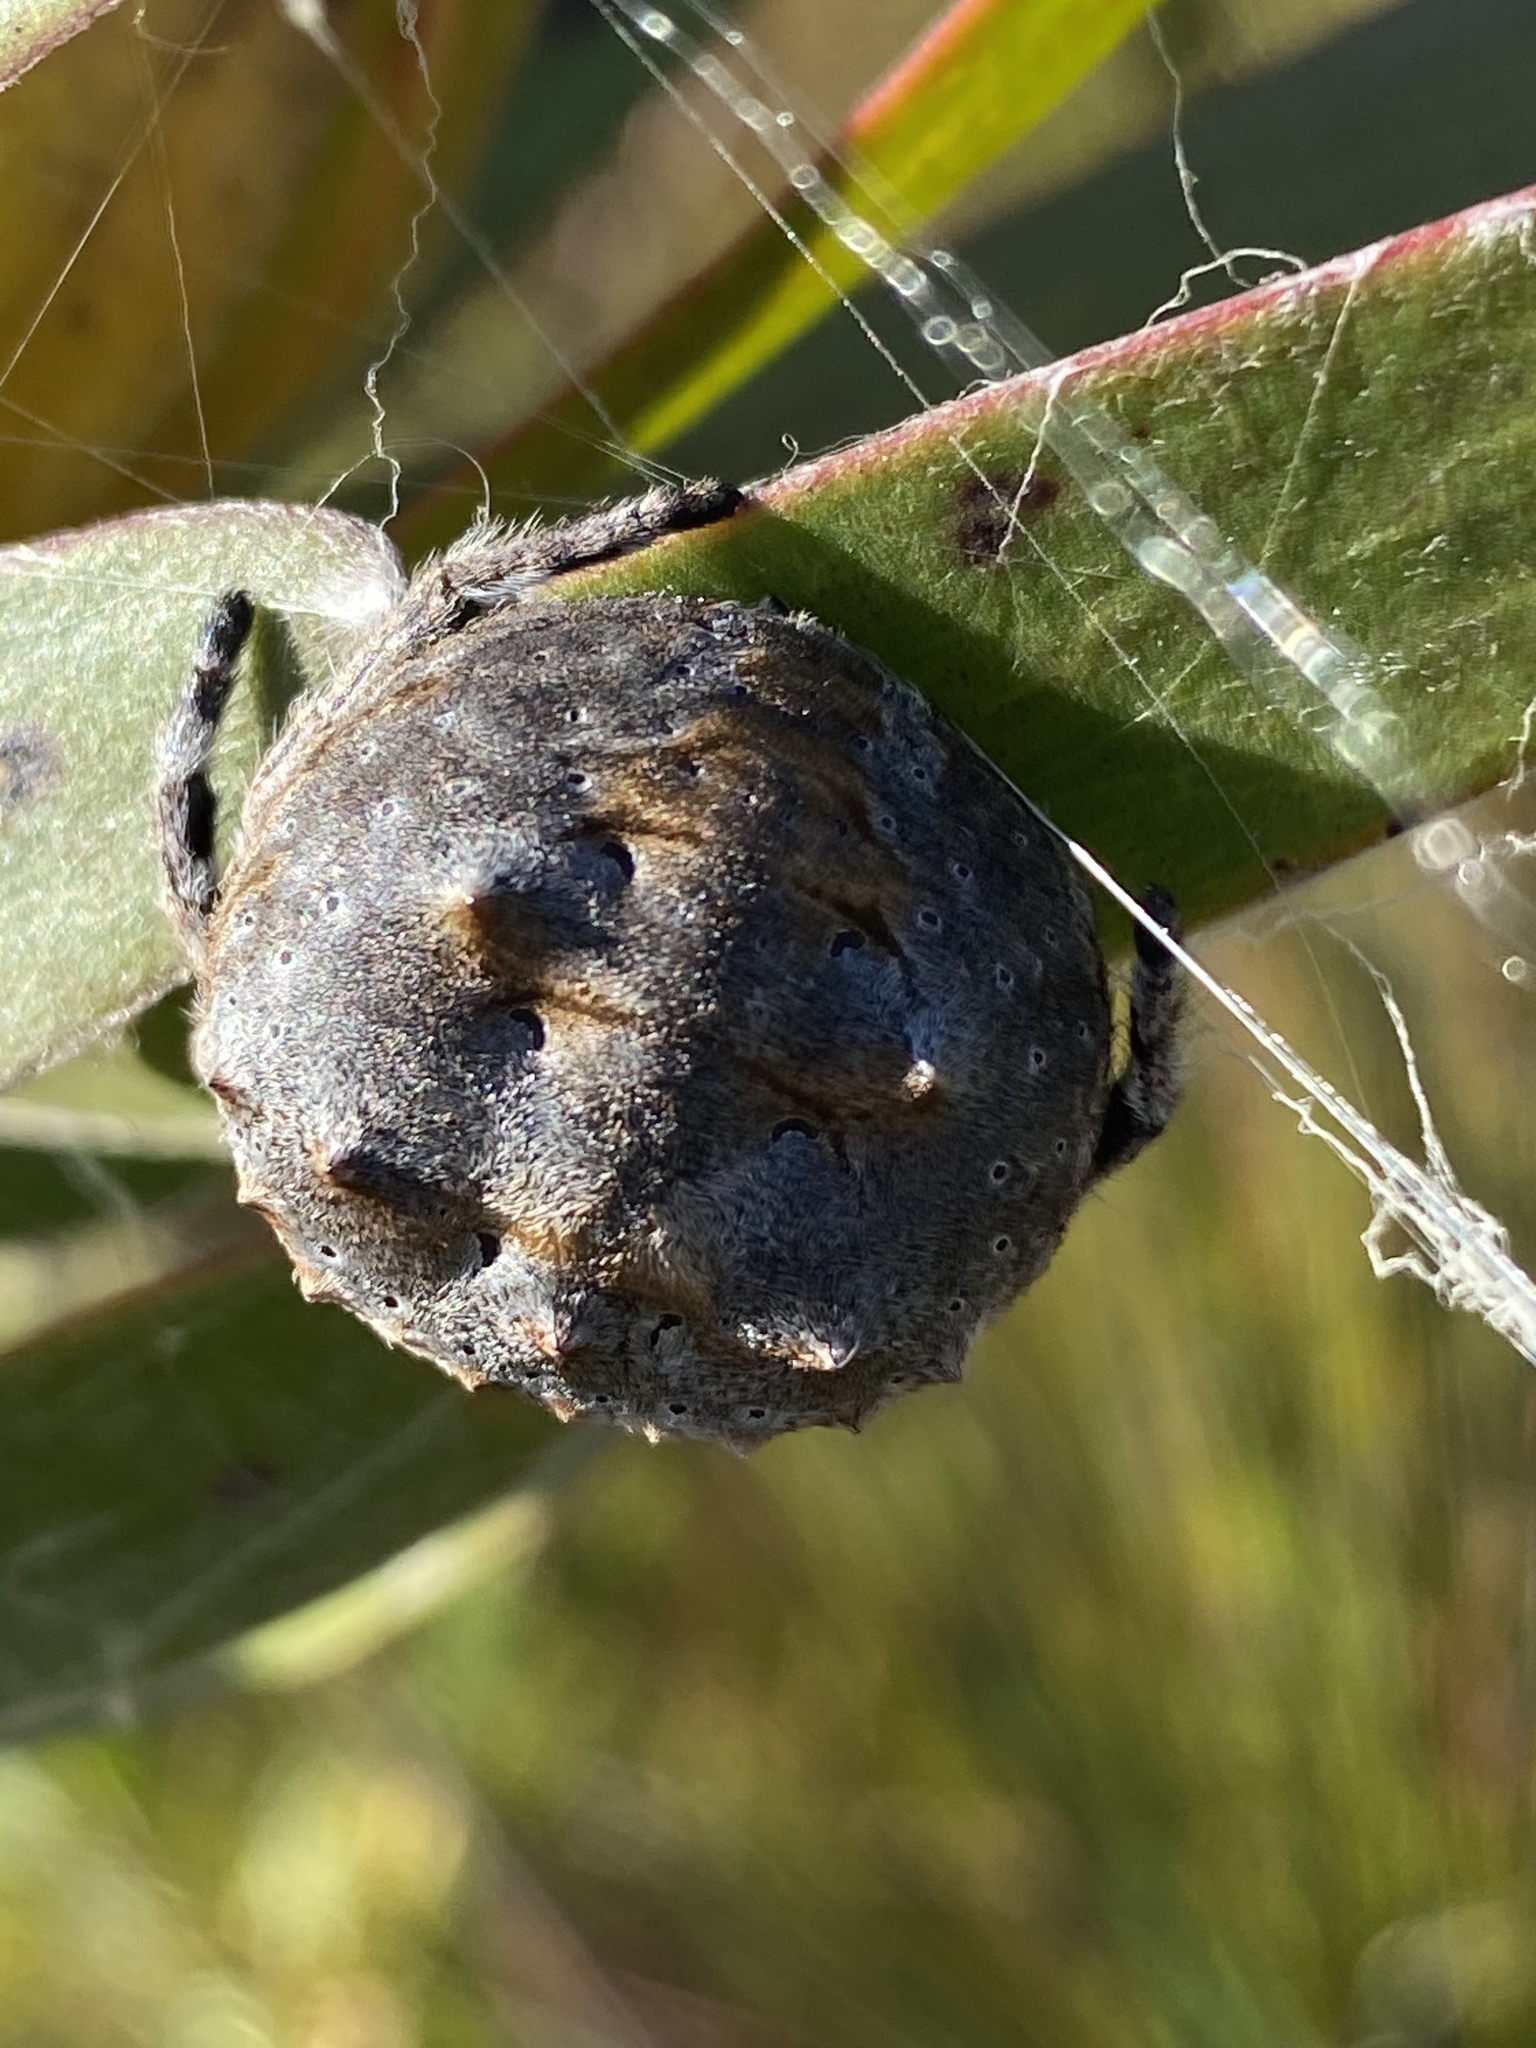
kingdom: Animalia
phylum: Arthropoda
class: Arachnida
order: Araneae
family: Araneidae
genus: Caerostris
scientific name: Caerostris corticosa
